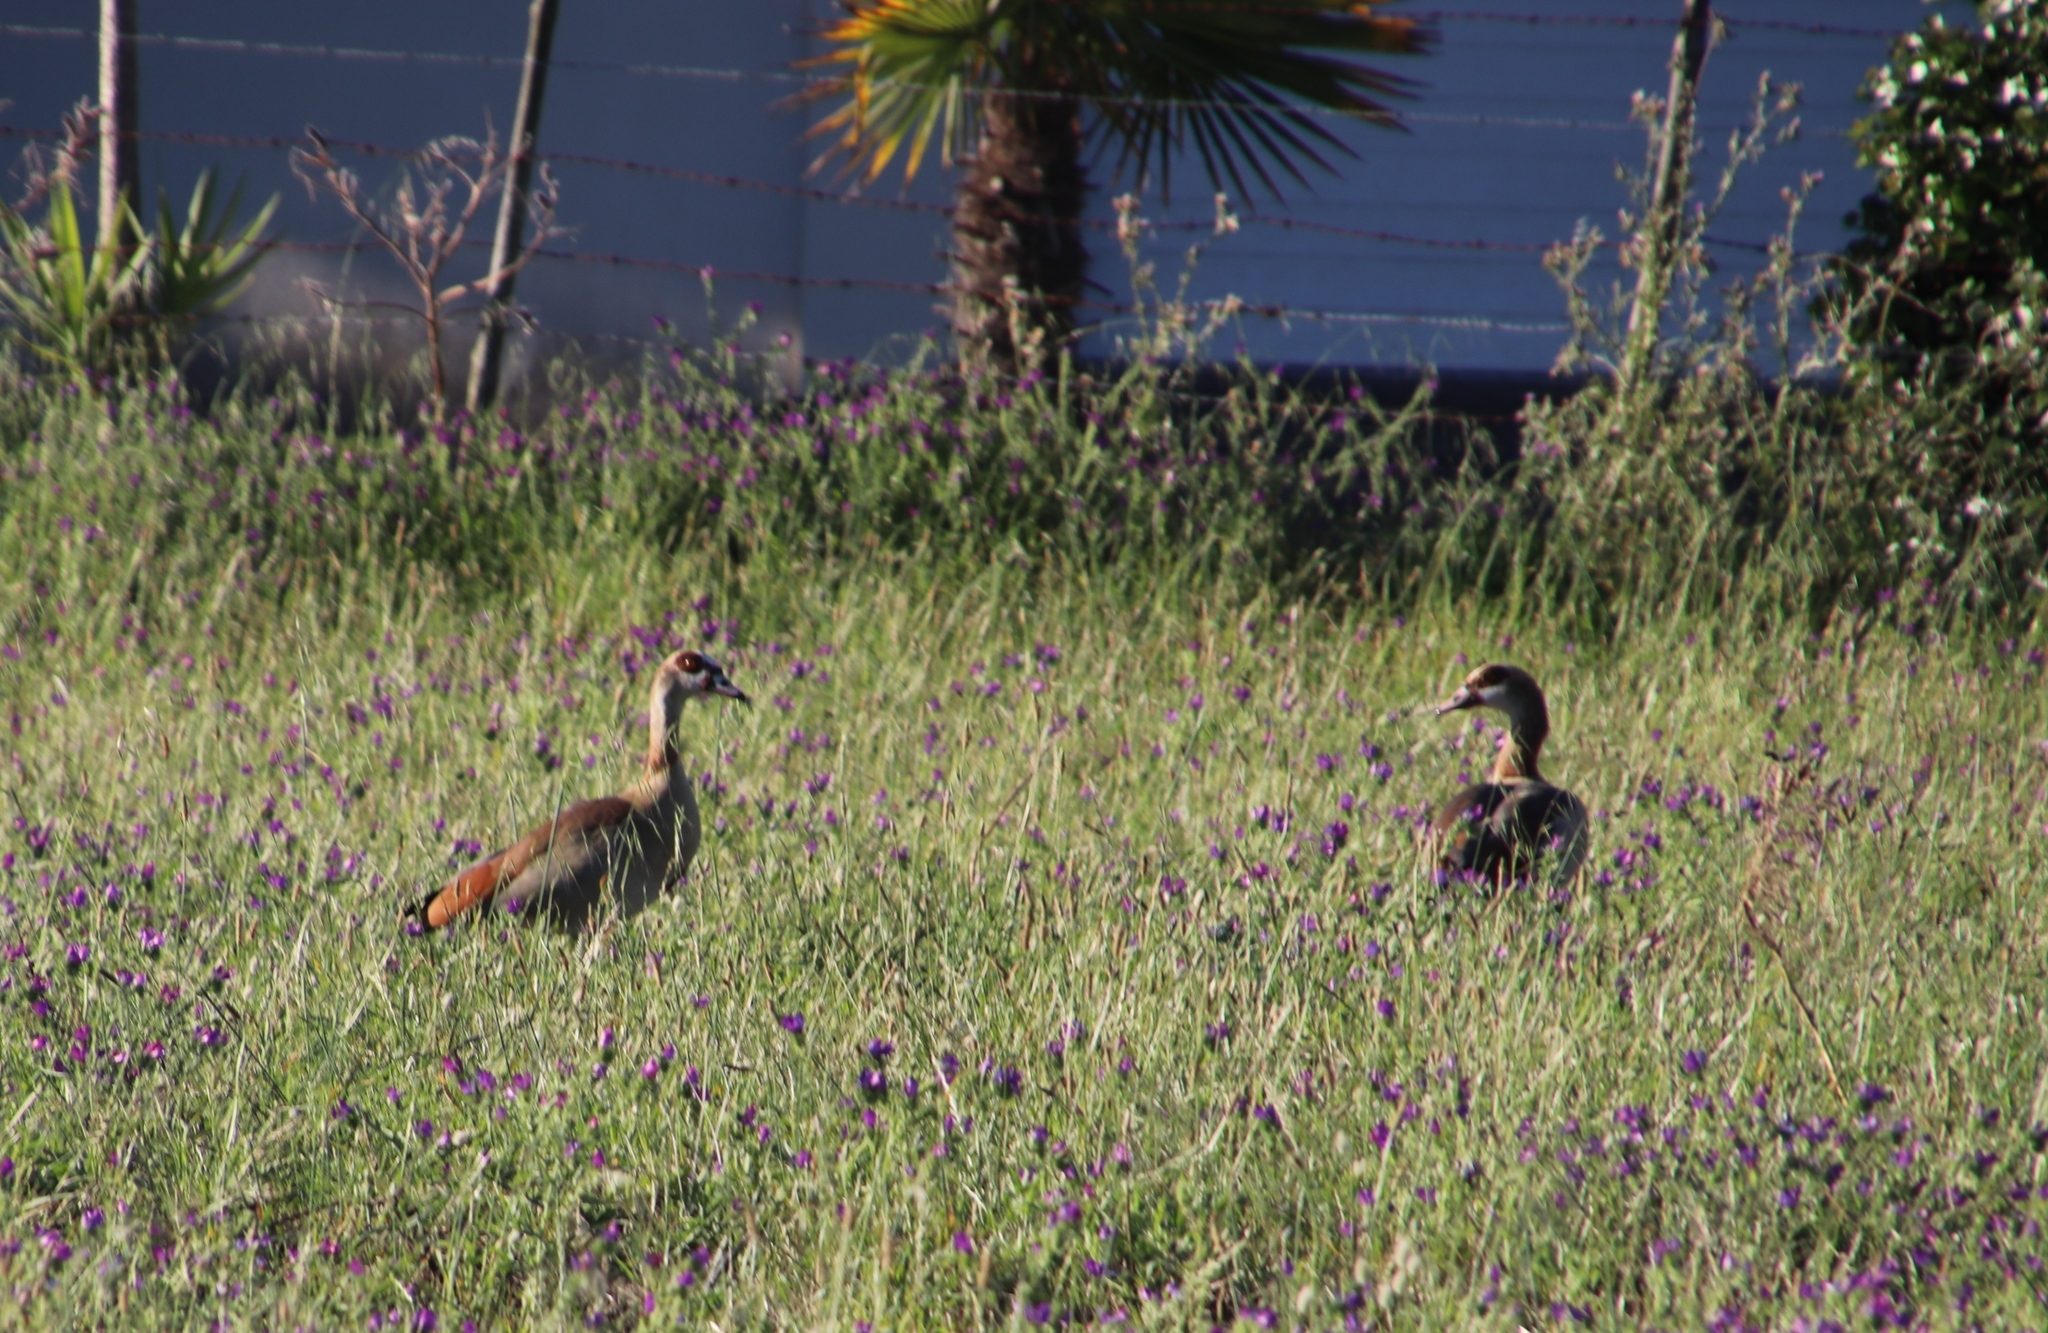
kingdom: Animalia
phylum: Chordata
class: Aves
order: Anseriformes
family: Anatidae
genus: Alopochen
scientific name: Alopochen aegyptiaca
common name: Egyptian goose
